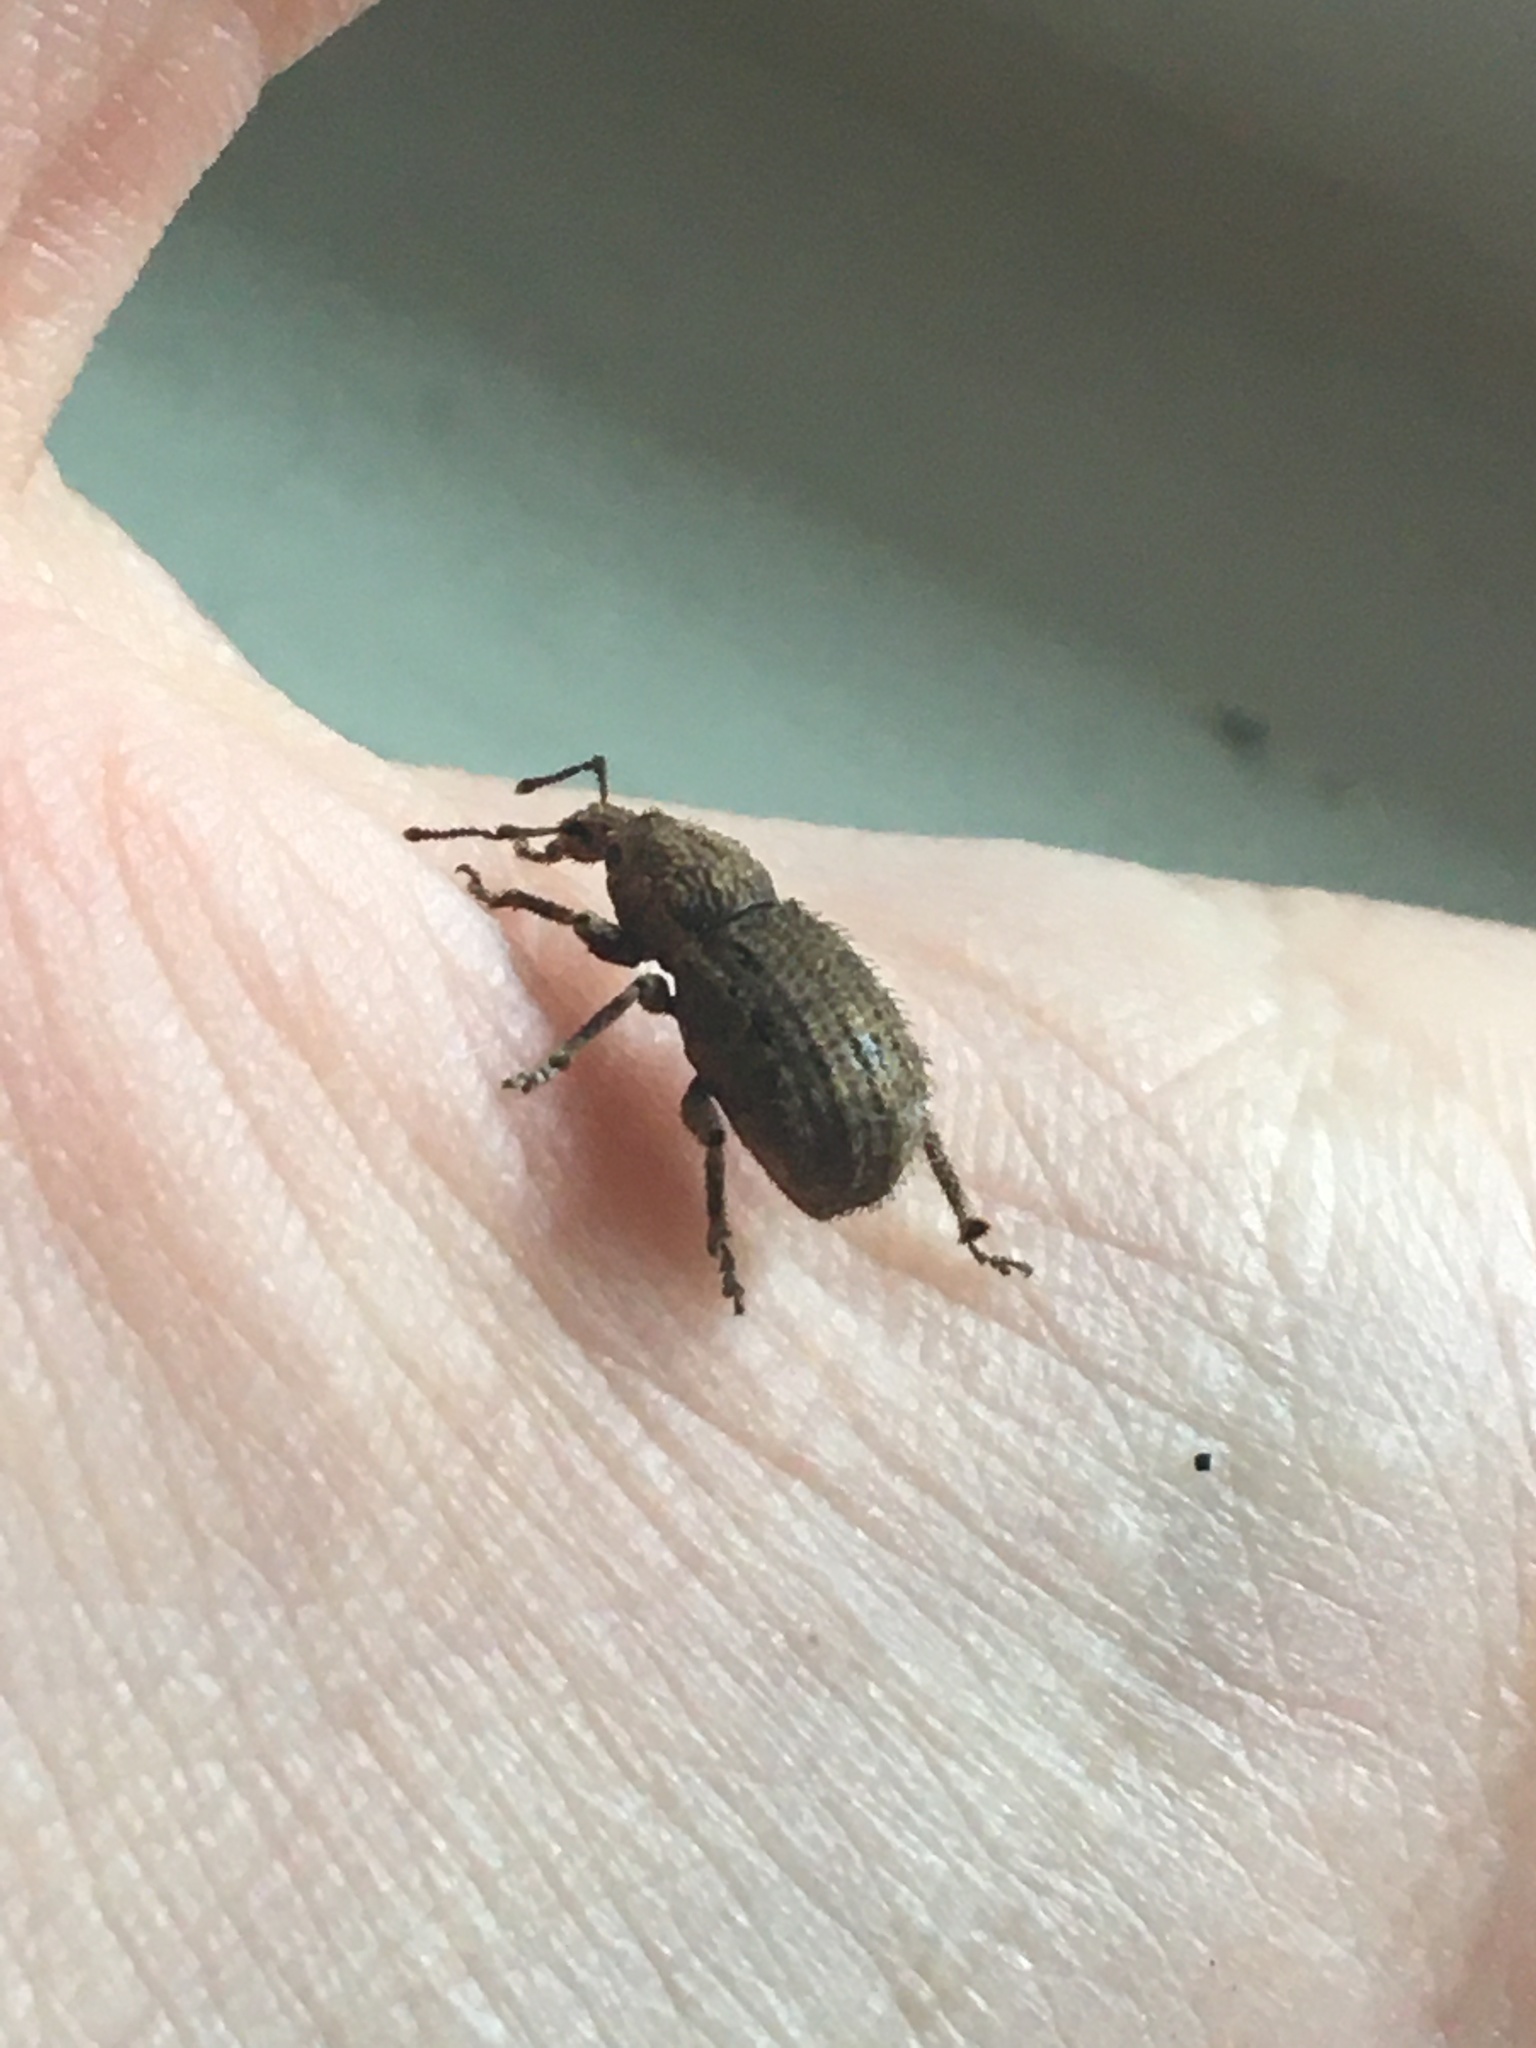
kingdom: Animalia
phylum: Arthropoda
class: Insecta
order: Coleoptera
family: Curculionidae
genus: Panscopus
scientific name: Panscopus erinaceus
